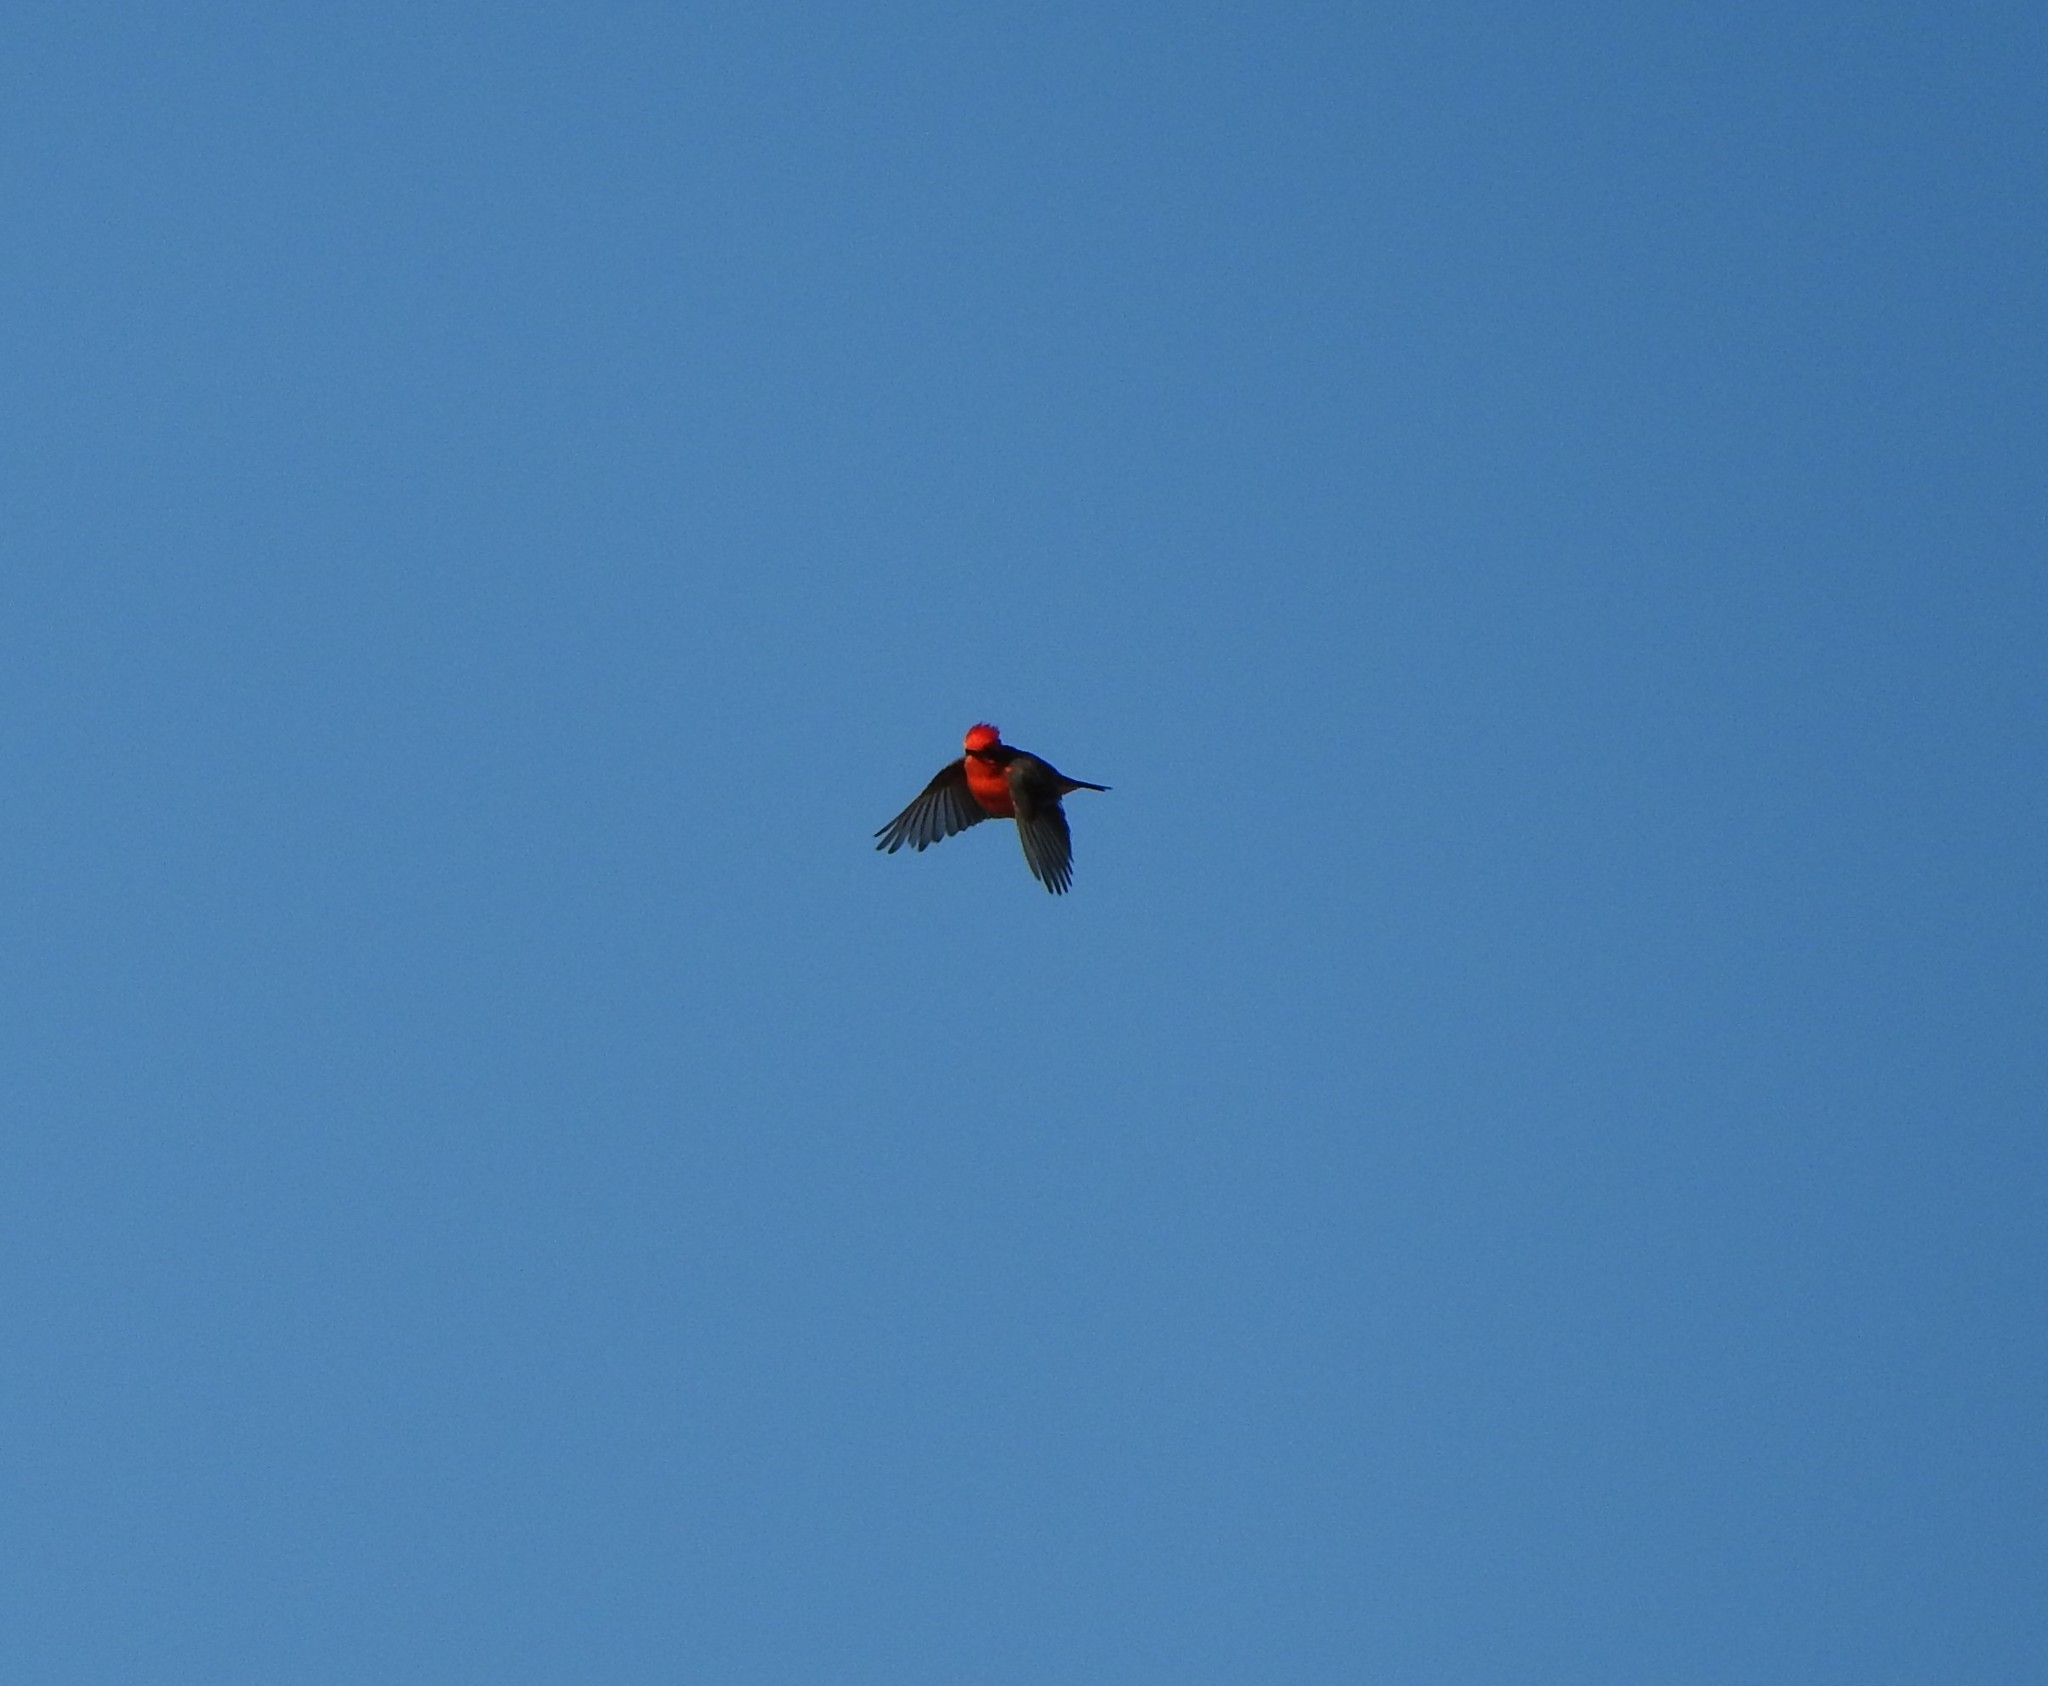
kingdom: Animalia
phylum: Chordata
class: Aves
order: Passeriformes
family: Tyrannidae
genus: Pyrocephalus
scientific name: Pyrocephalus rubinus
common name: Vermilion flycatcher
